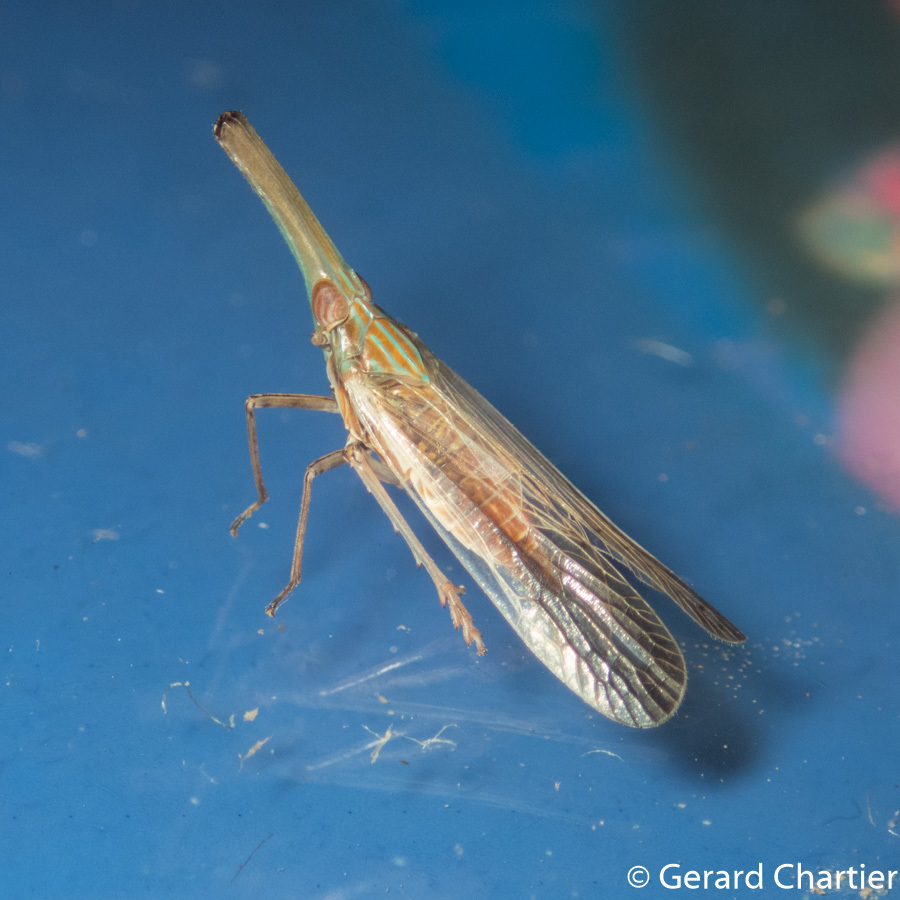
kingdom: Animalia
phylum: Arthropoda
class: Insecta
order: Hemiptera
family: Dictyopharidae
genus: Zedochir
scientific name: Zedochir fuscovittatus
